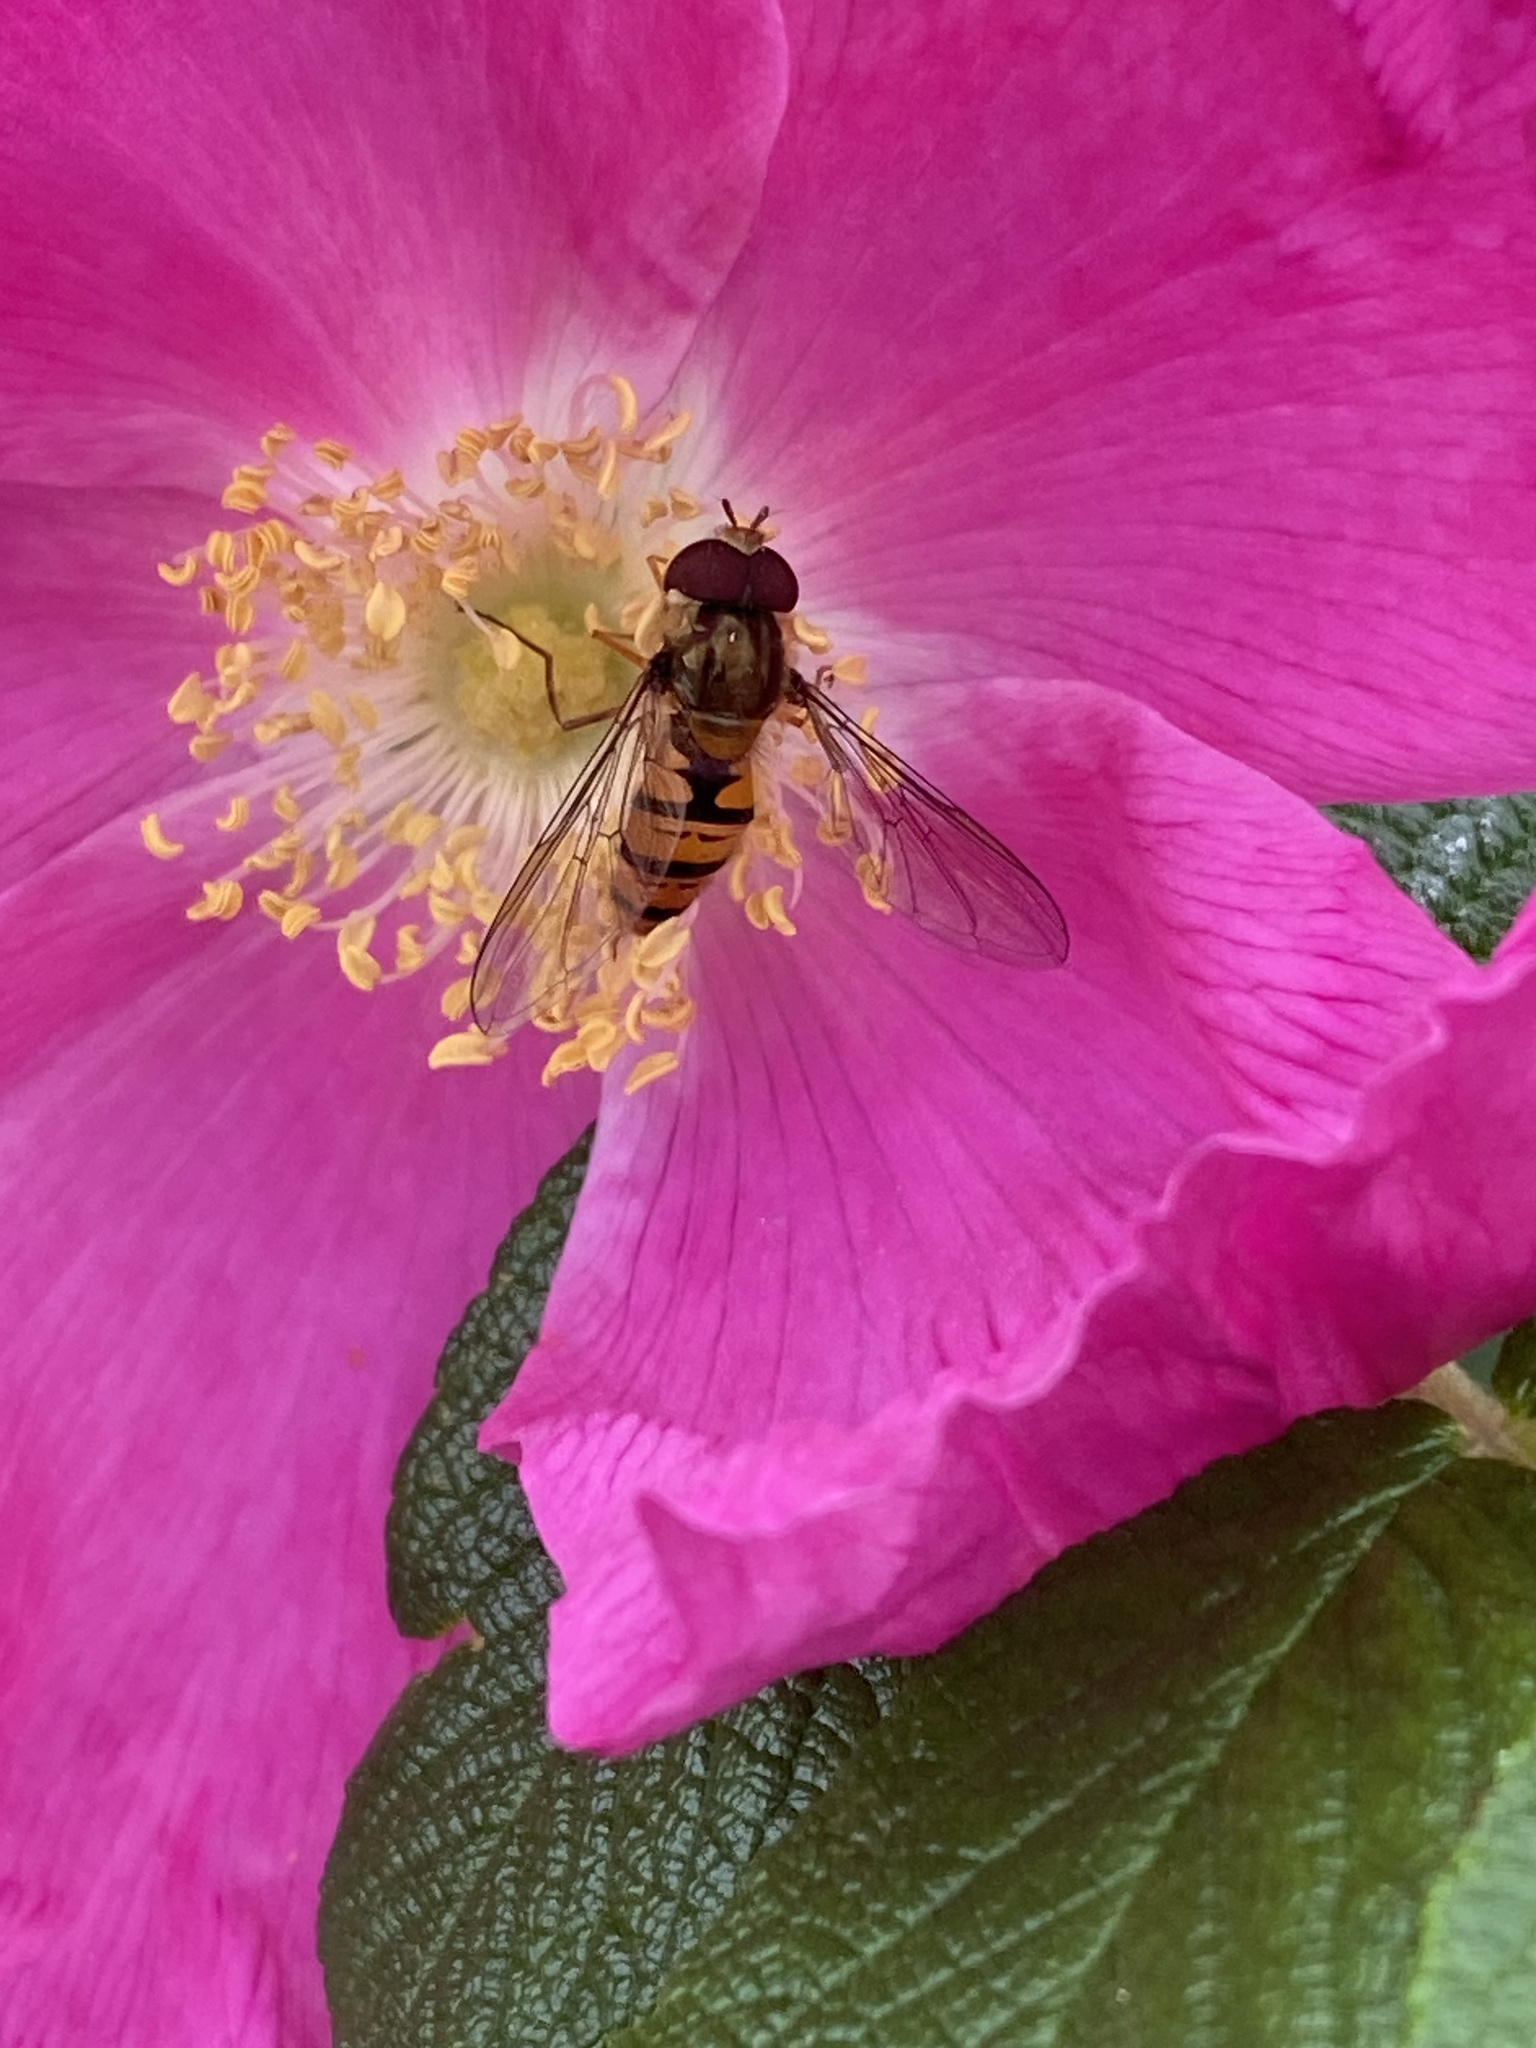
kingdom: Animalia
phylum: Arthropoda
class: Insecta
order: Diptera
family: Syrphidae
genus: Episyrphus
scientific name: Episyrphus balteatus
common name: Marmalade hoverfly
